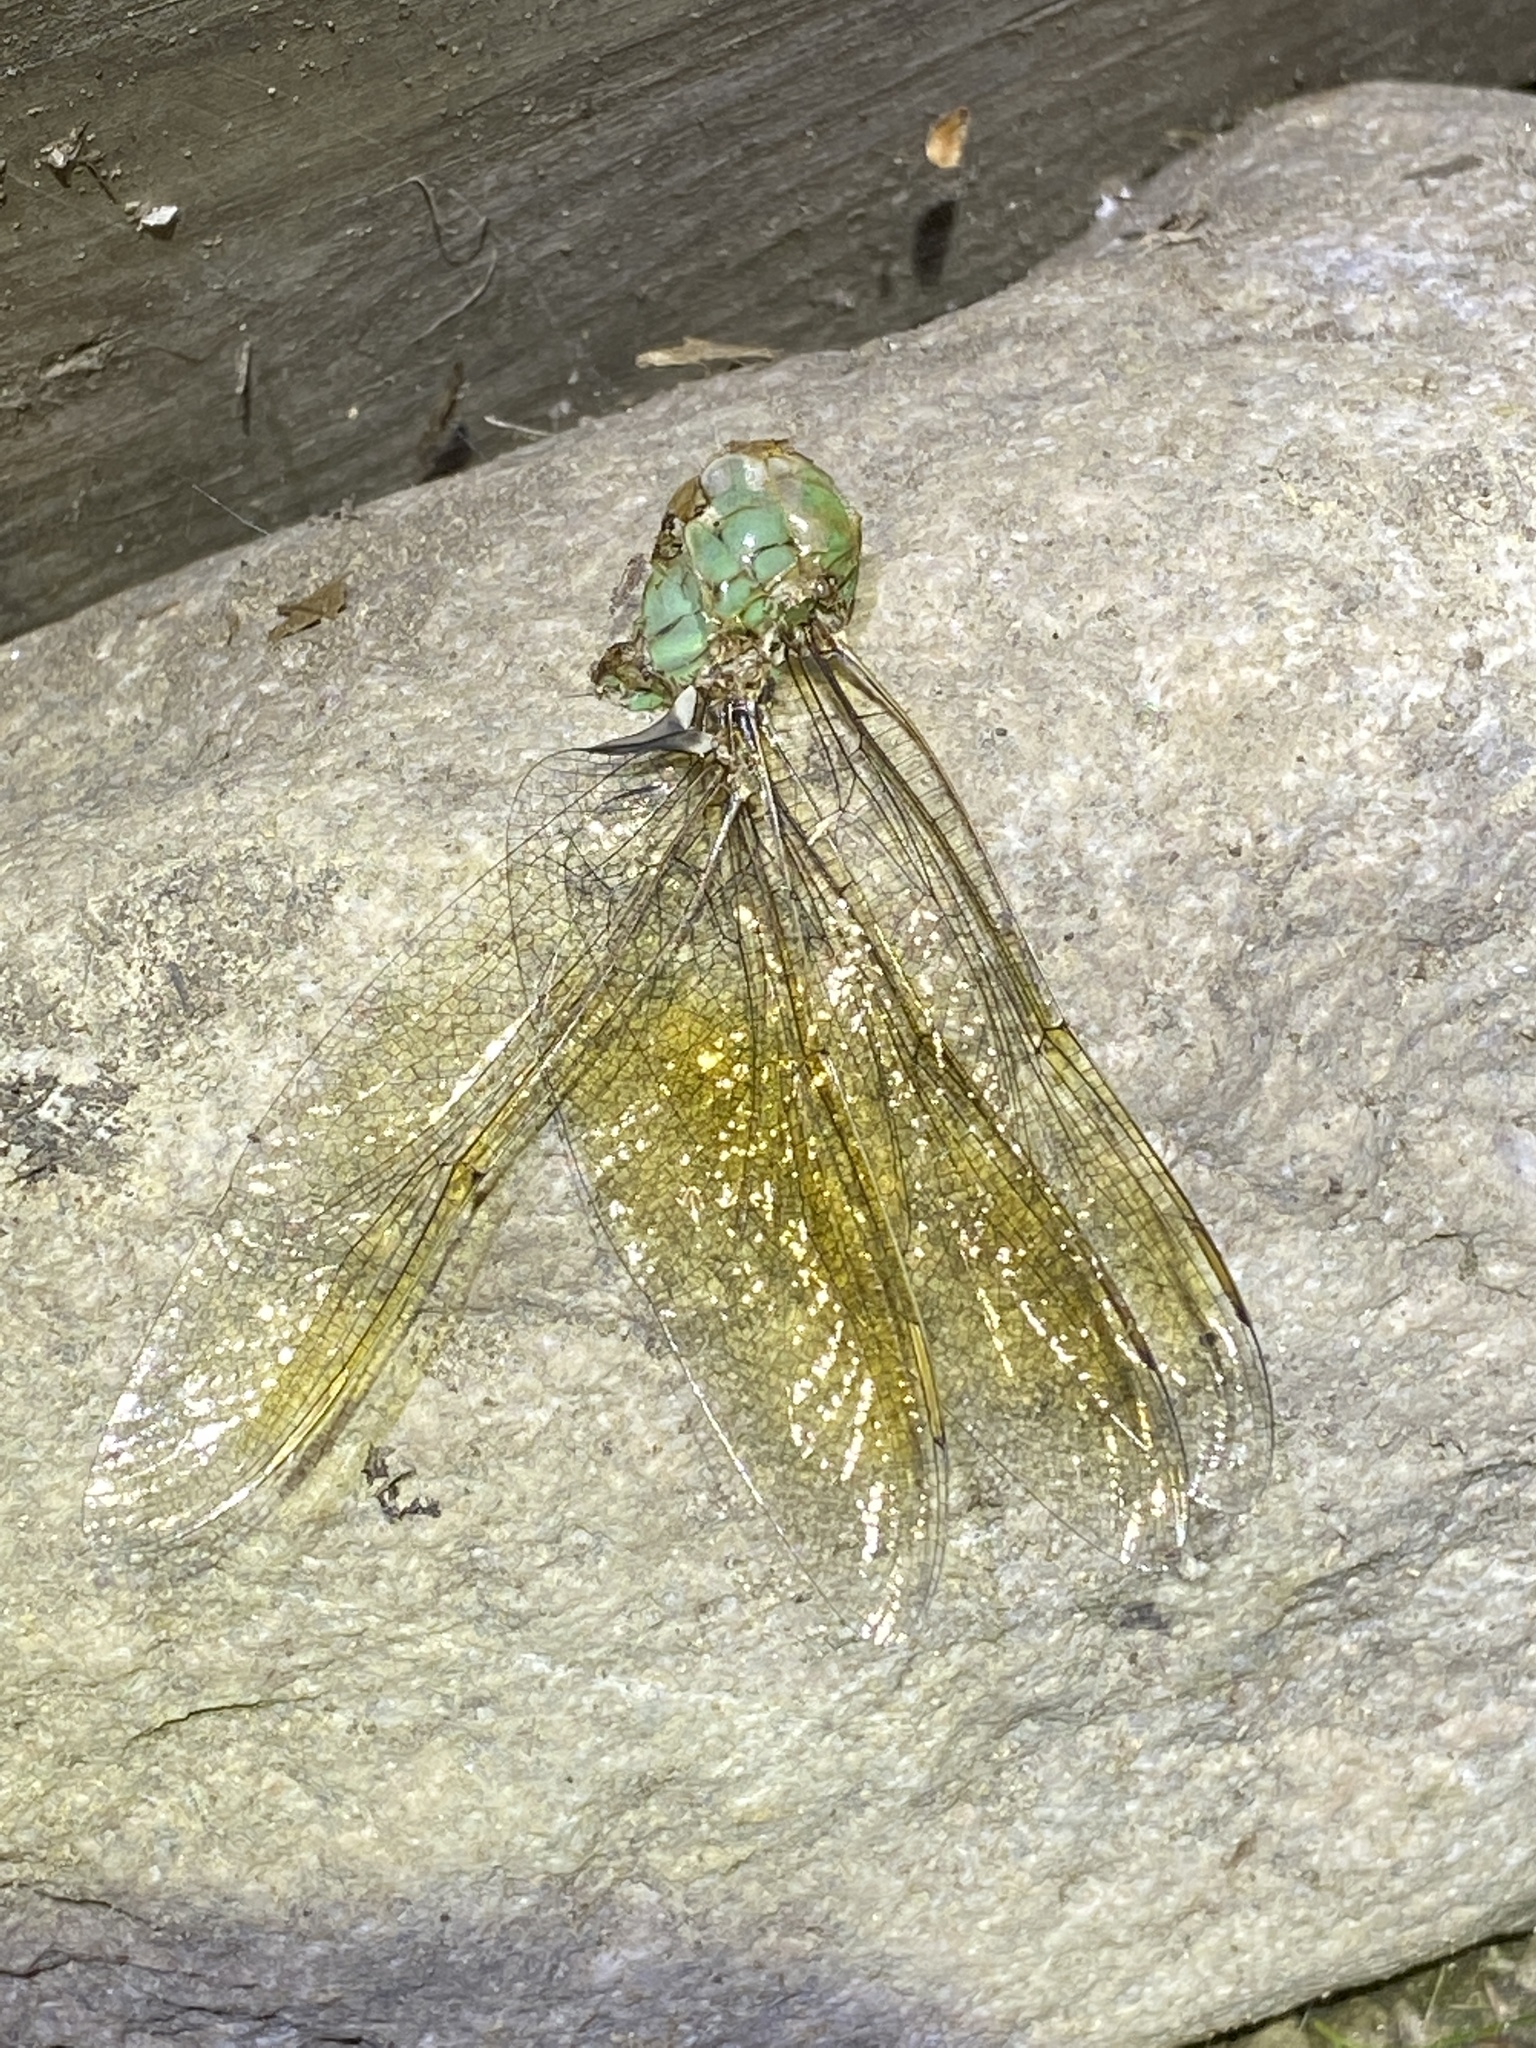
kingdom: Animalia
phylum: Arthropoda
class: Insecta
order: Odonata
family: Aeshnidae
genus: Anax
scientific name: Anax junius
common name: Common green darner
